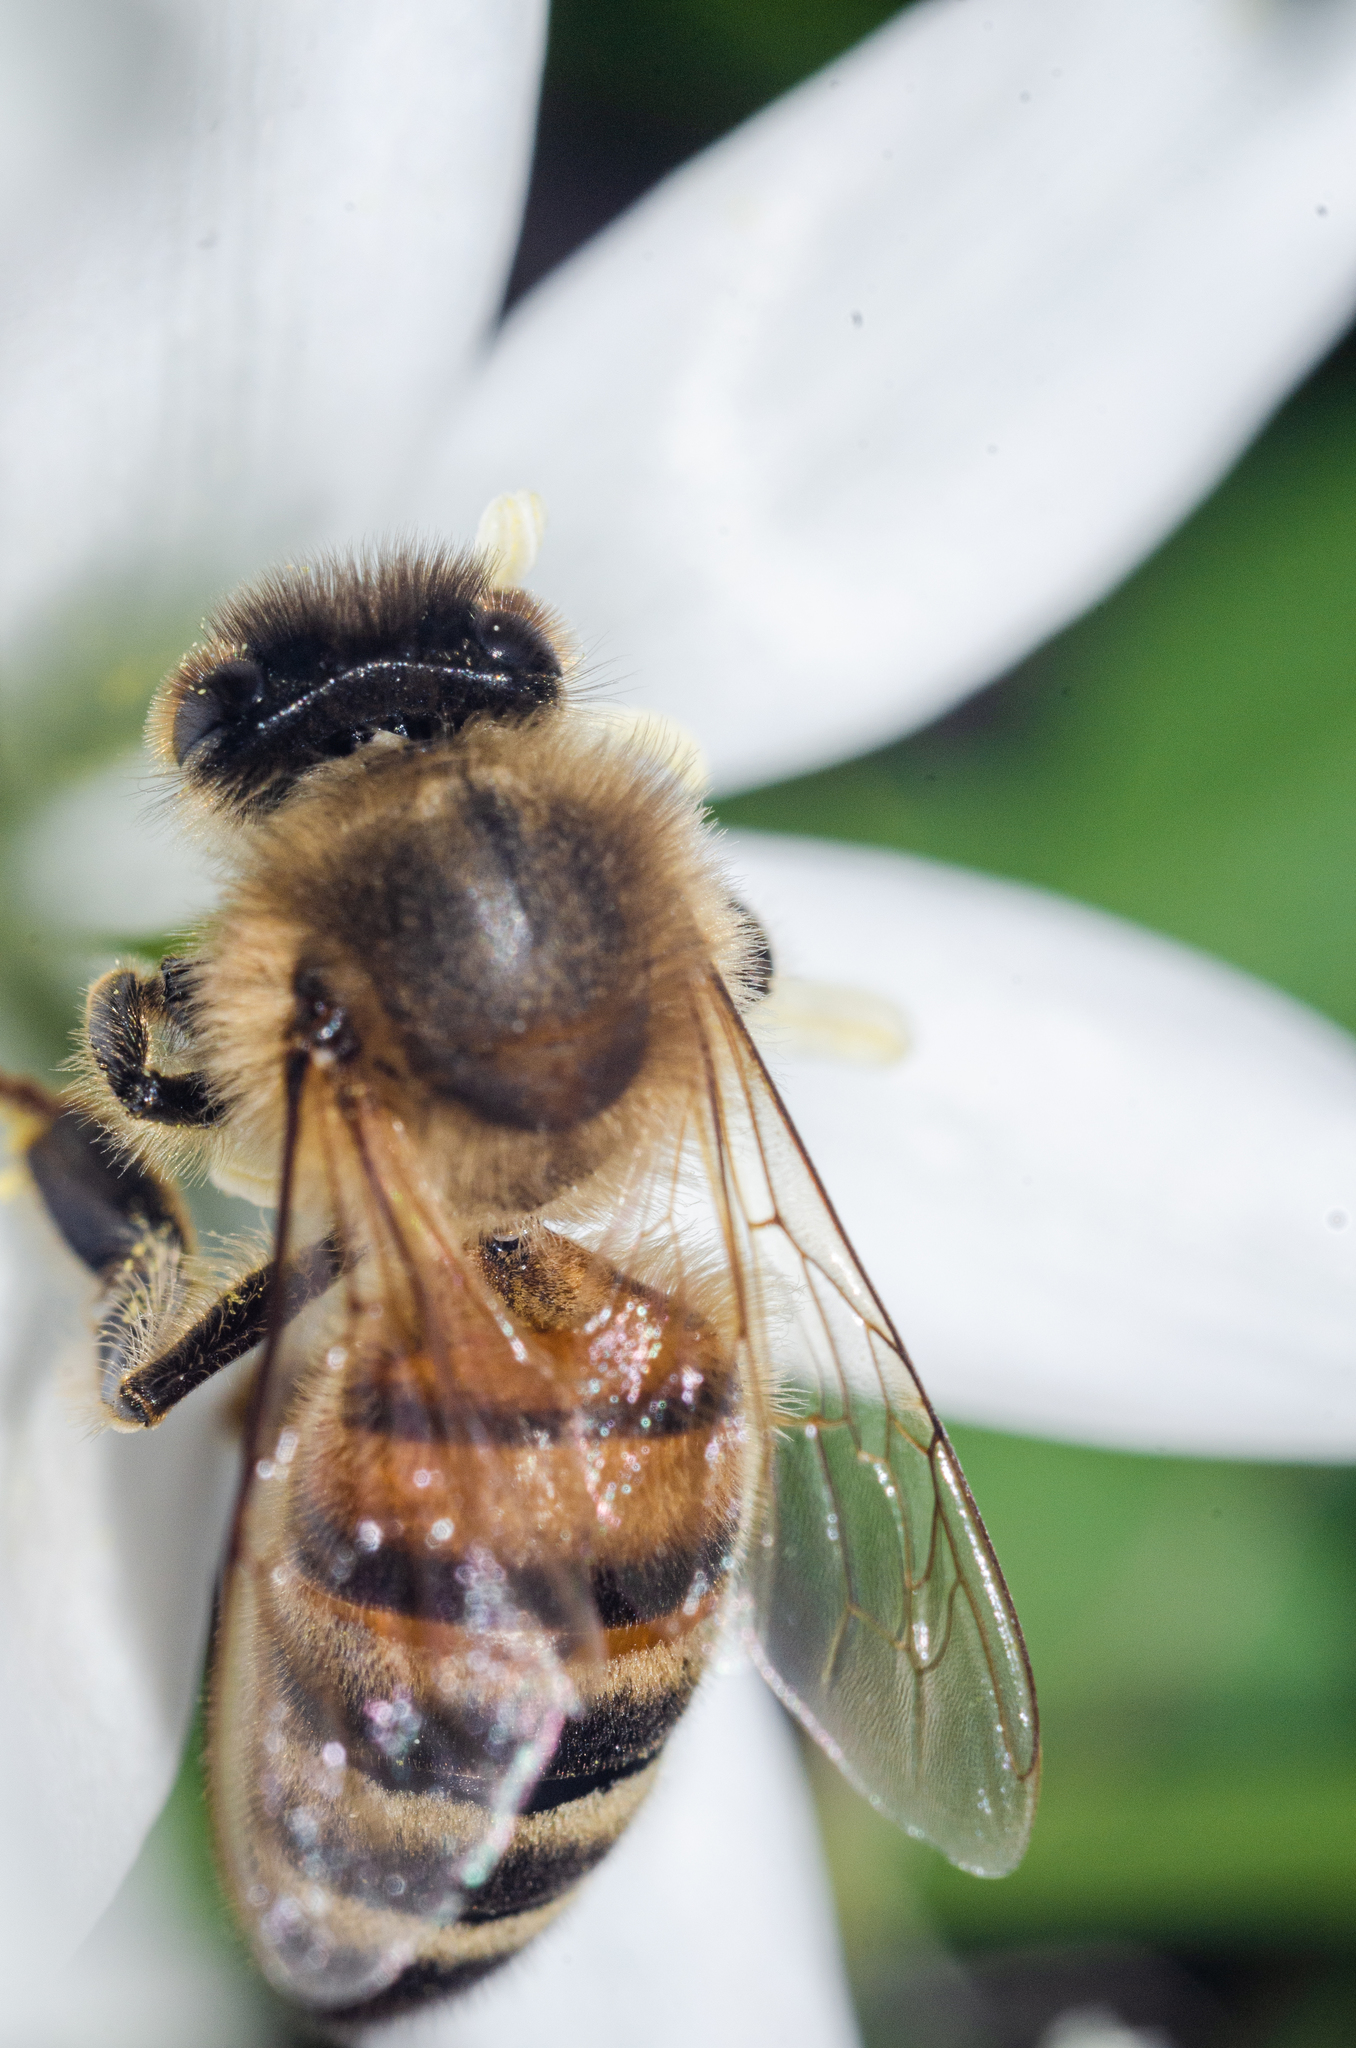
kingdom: Animalia
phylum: Arthropoda
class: Insecta
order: Hymenoptera
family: Apidae
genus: Apis
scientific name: Apis mellifera
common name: Honey bee
